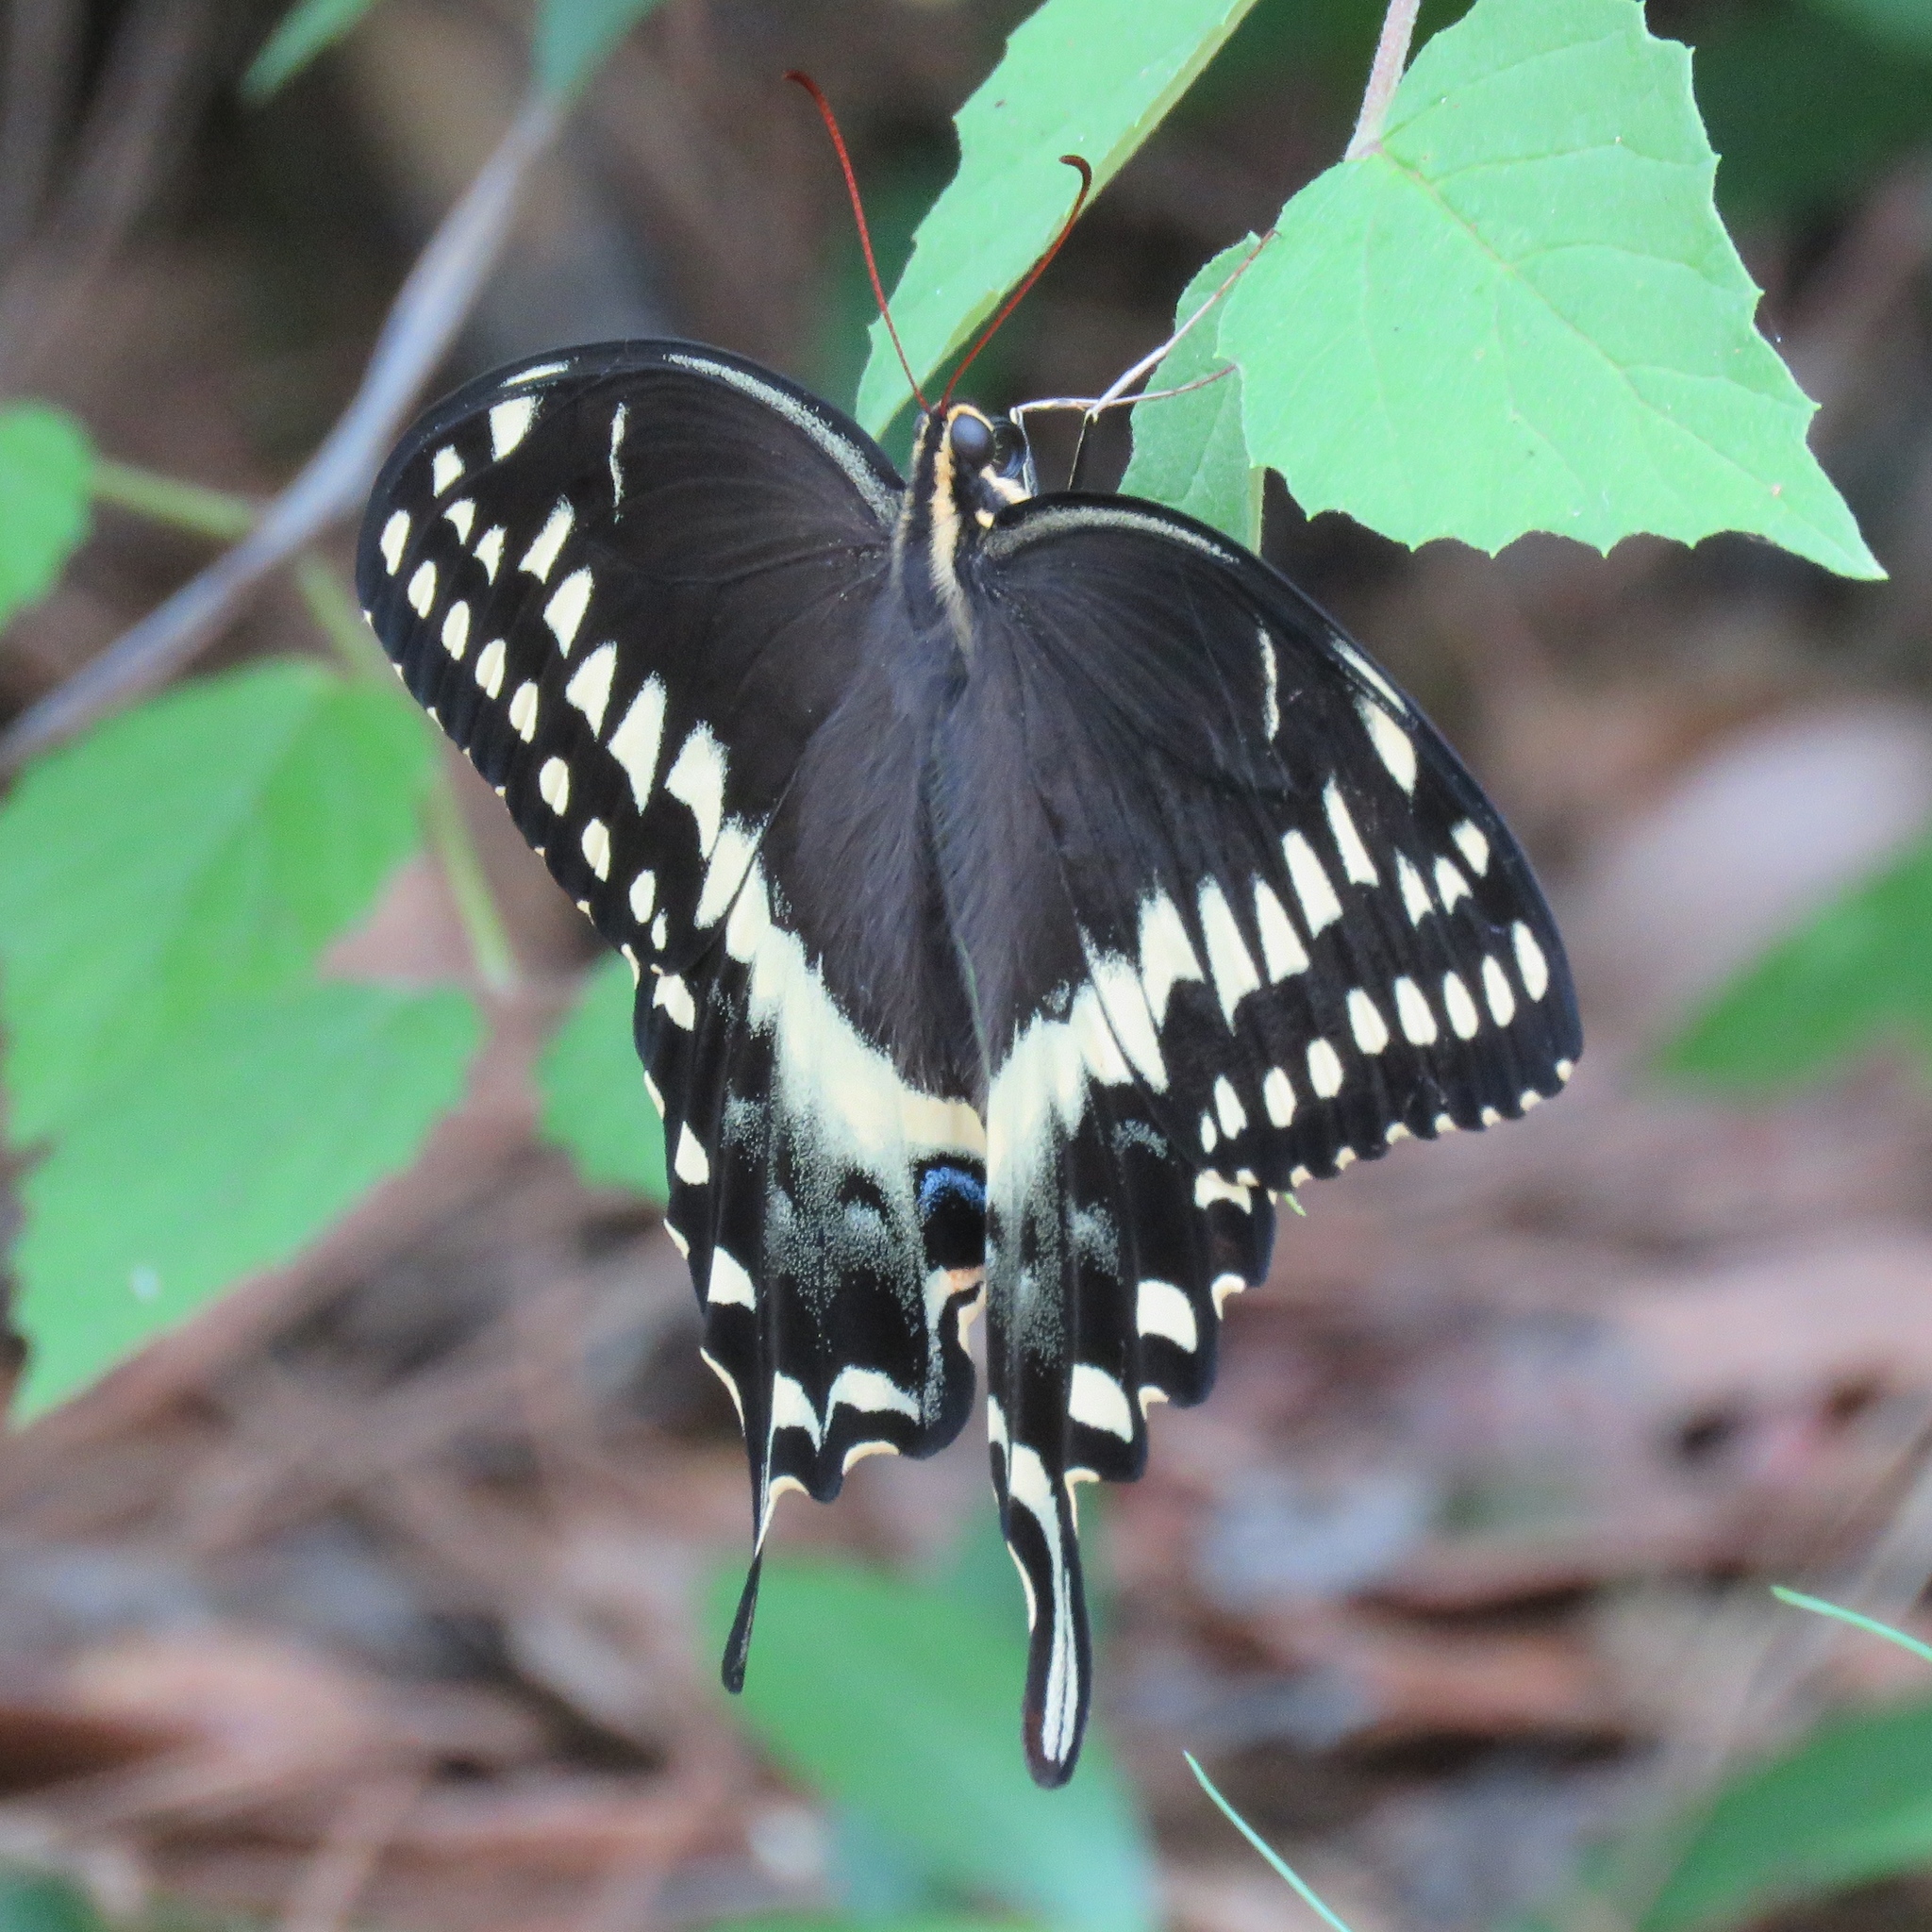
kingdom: Animalia
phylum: Arthropoda
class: Insecta
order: Lepidoptera
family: Papilionidae
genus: Papilio
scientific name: Papilio palamedes
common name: Palamedes swallowtail
